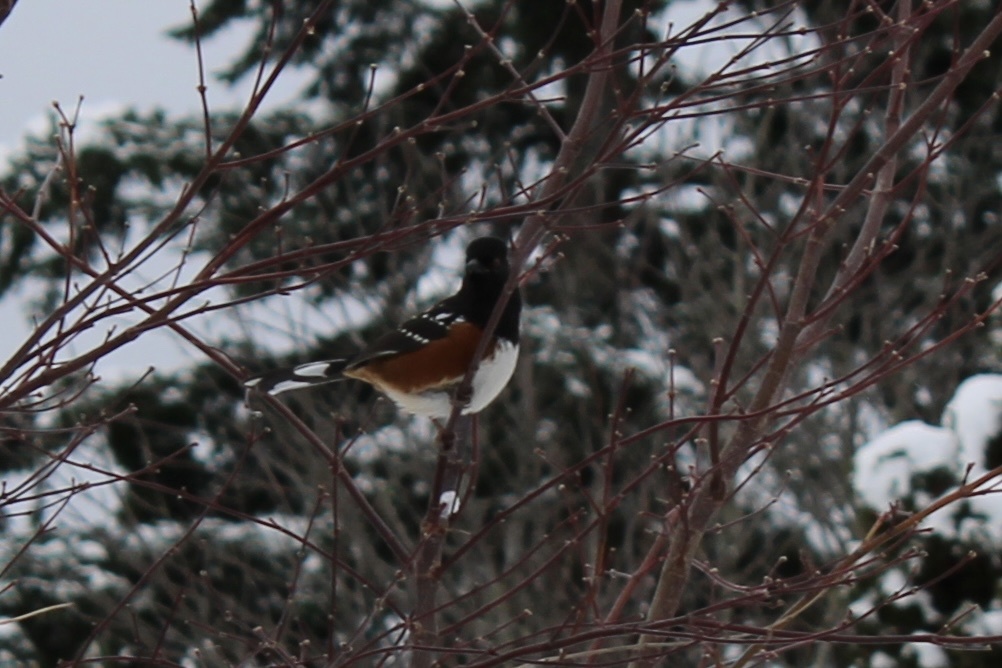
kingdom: Animalia
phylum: Chordata
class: Aves
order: Passeriformes
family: Passerellidae
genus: Pipilo
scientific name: Pipilo maculatus
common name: Spotted towhee
